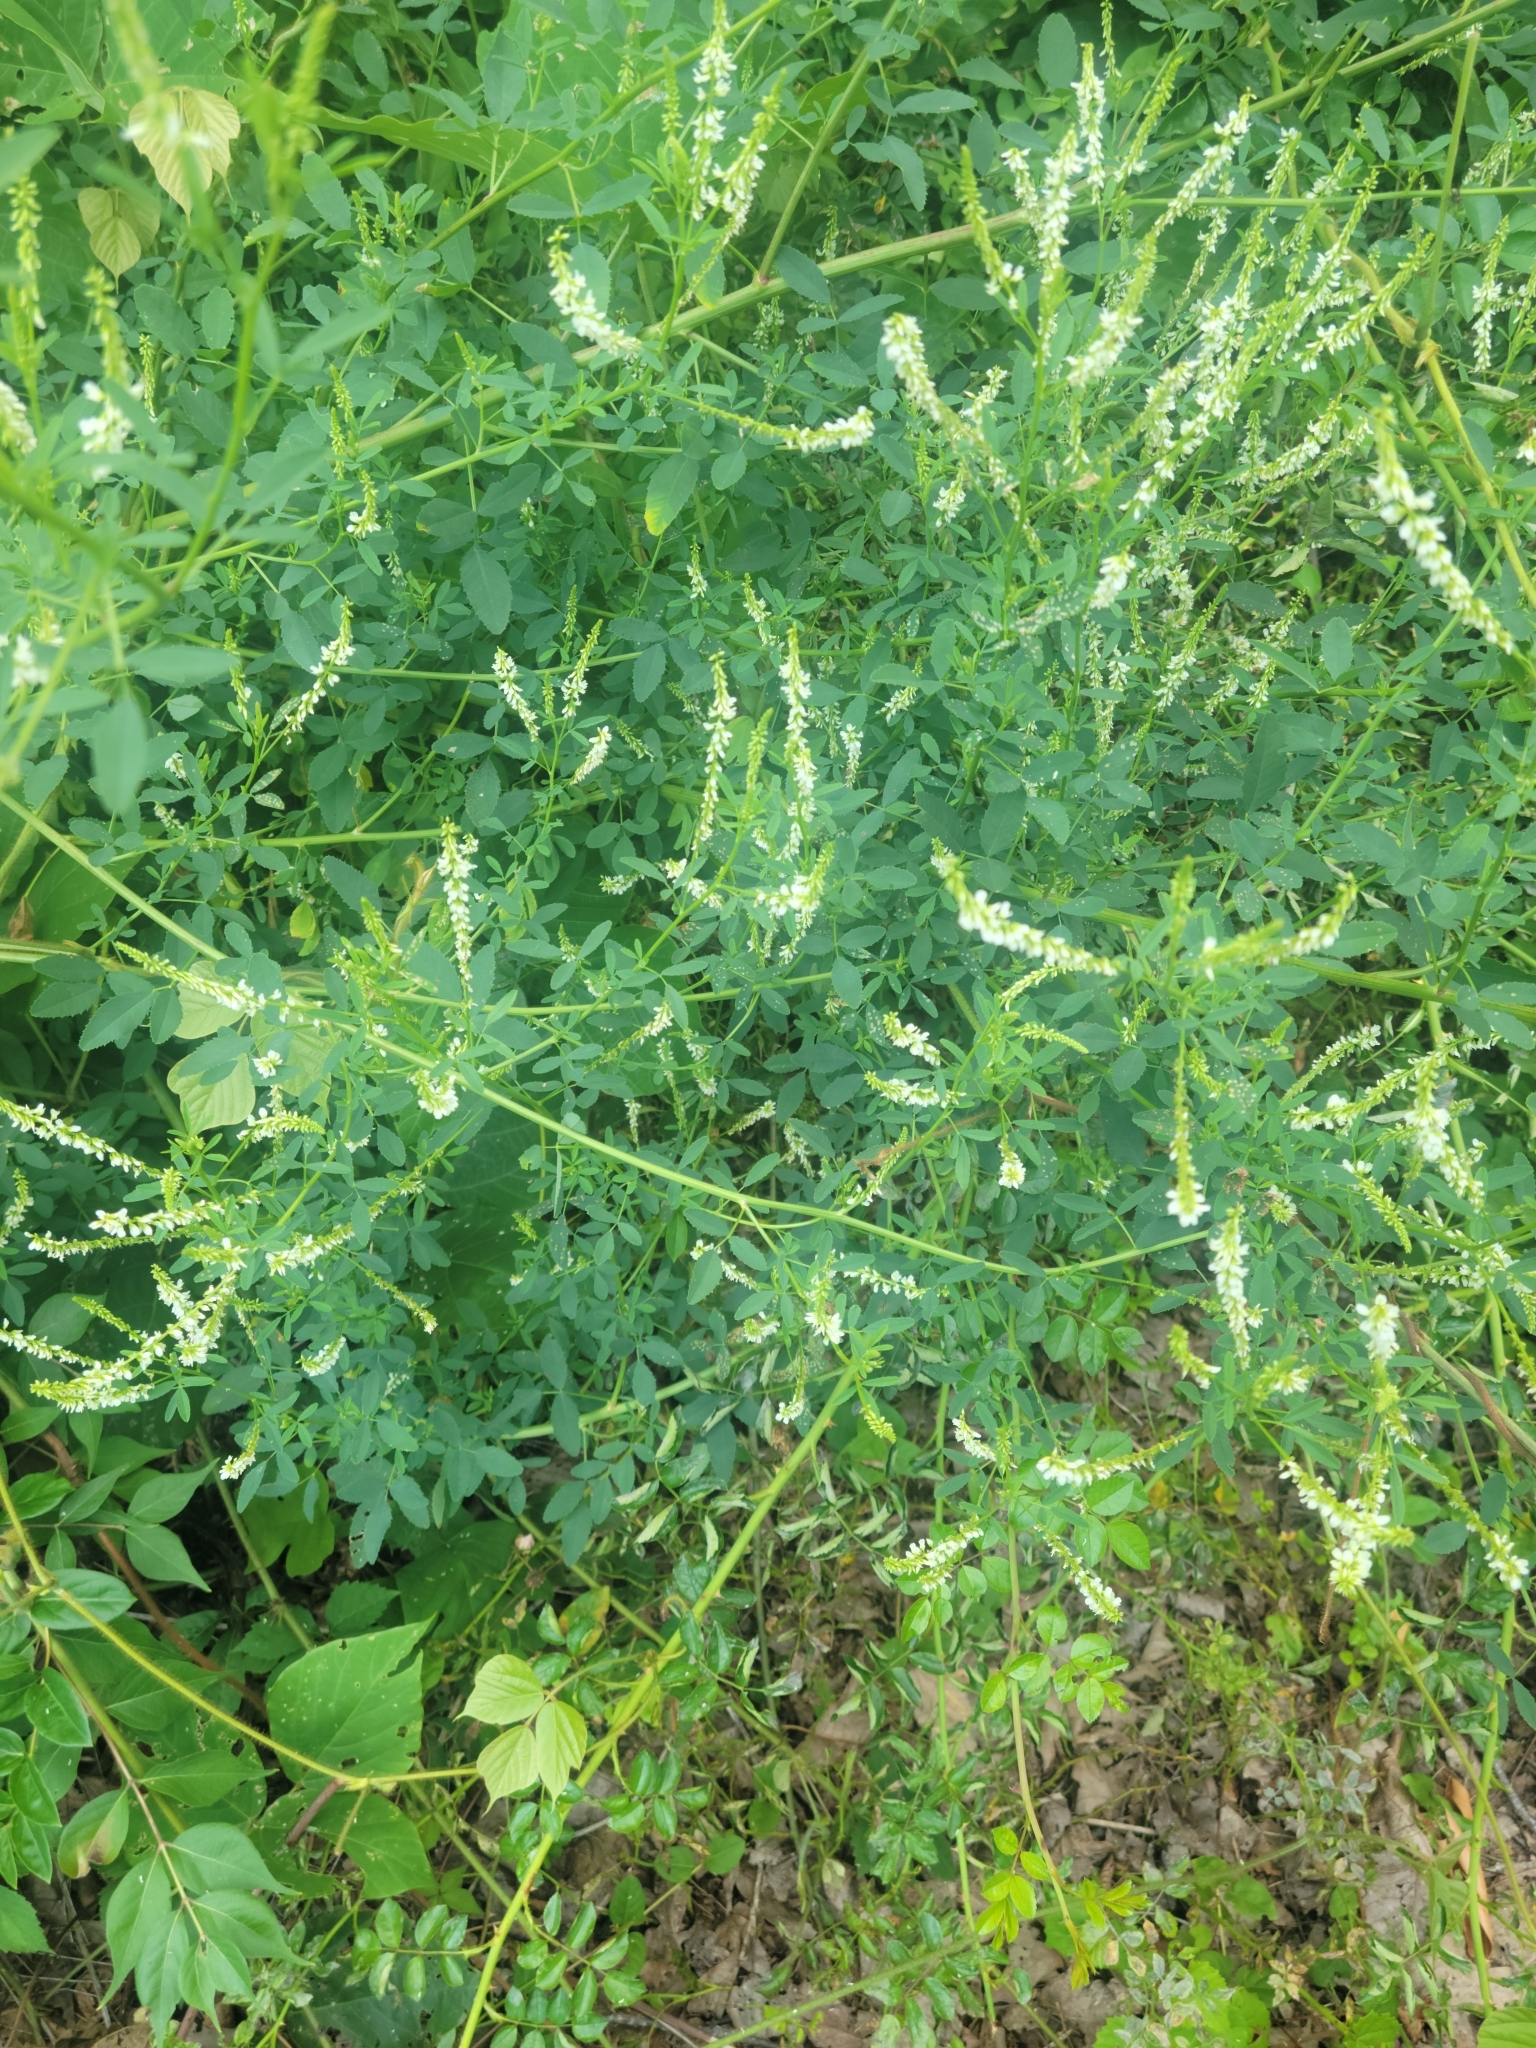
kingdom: Plantae
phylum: Tracheophyta
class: Magnoliopsida
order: Fabales
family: Fabaceae
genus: Melilotus
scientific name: Melilotus albus
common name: White melilot
